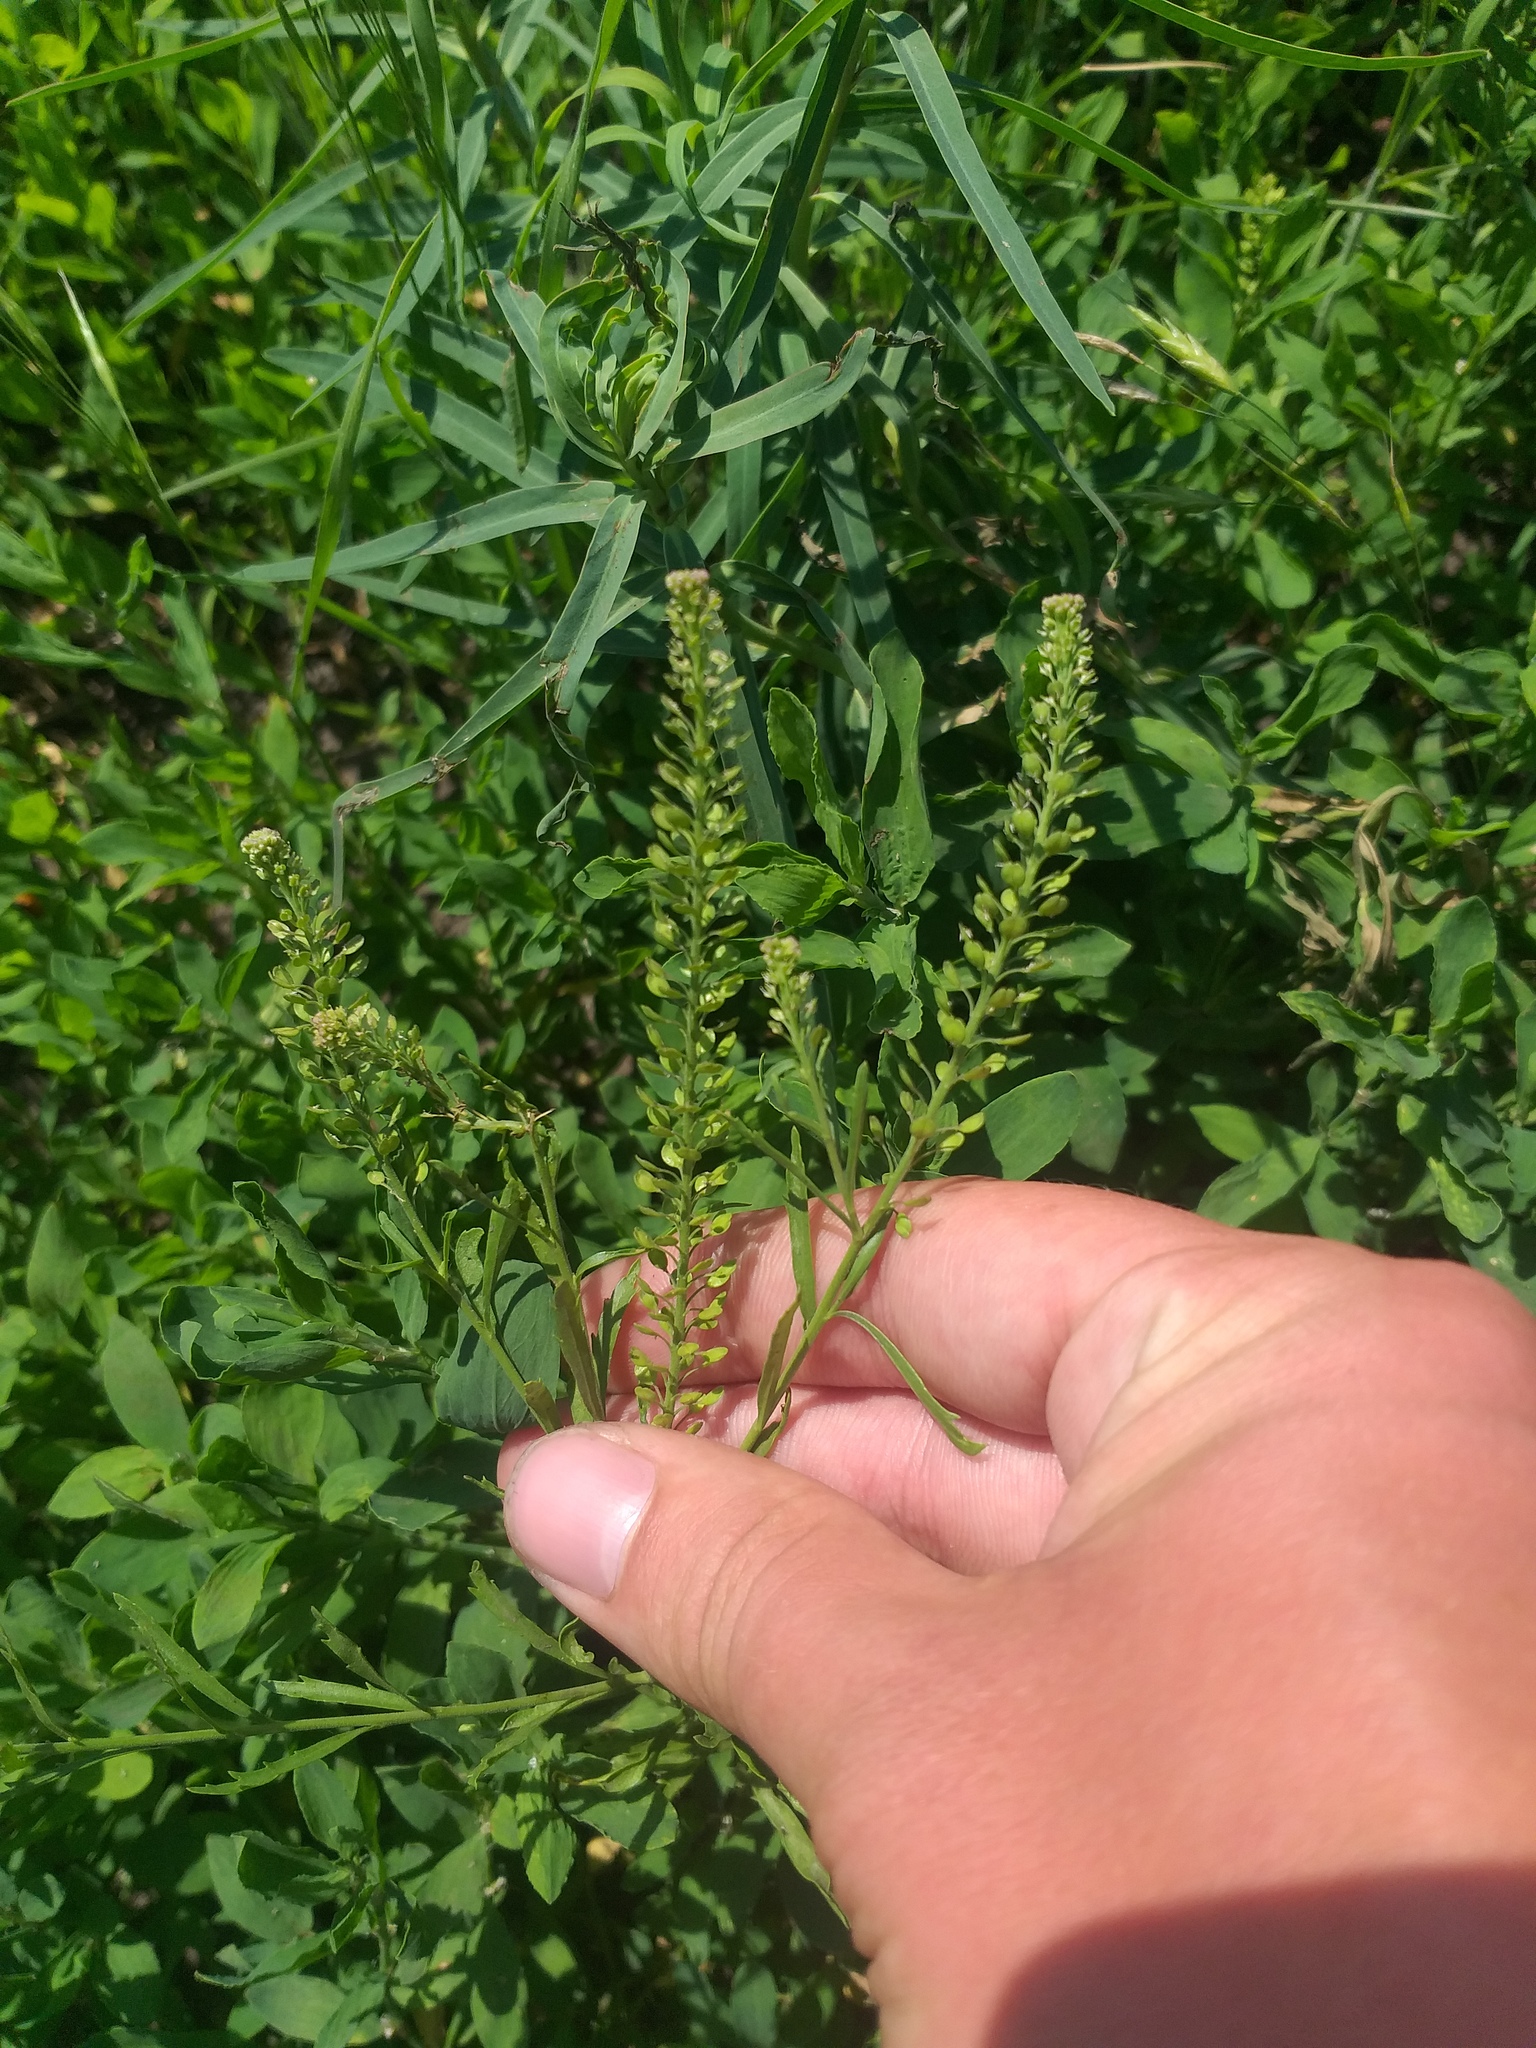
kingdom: Plantae
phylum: Tracheophyta
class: Magnoliopsida
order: Brassicales
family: Brassicaceae
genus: Lepidium
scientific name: Lepidium densiflorum
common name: Miner's pepperwort
